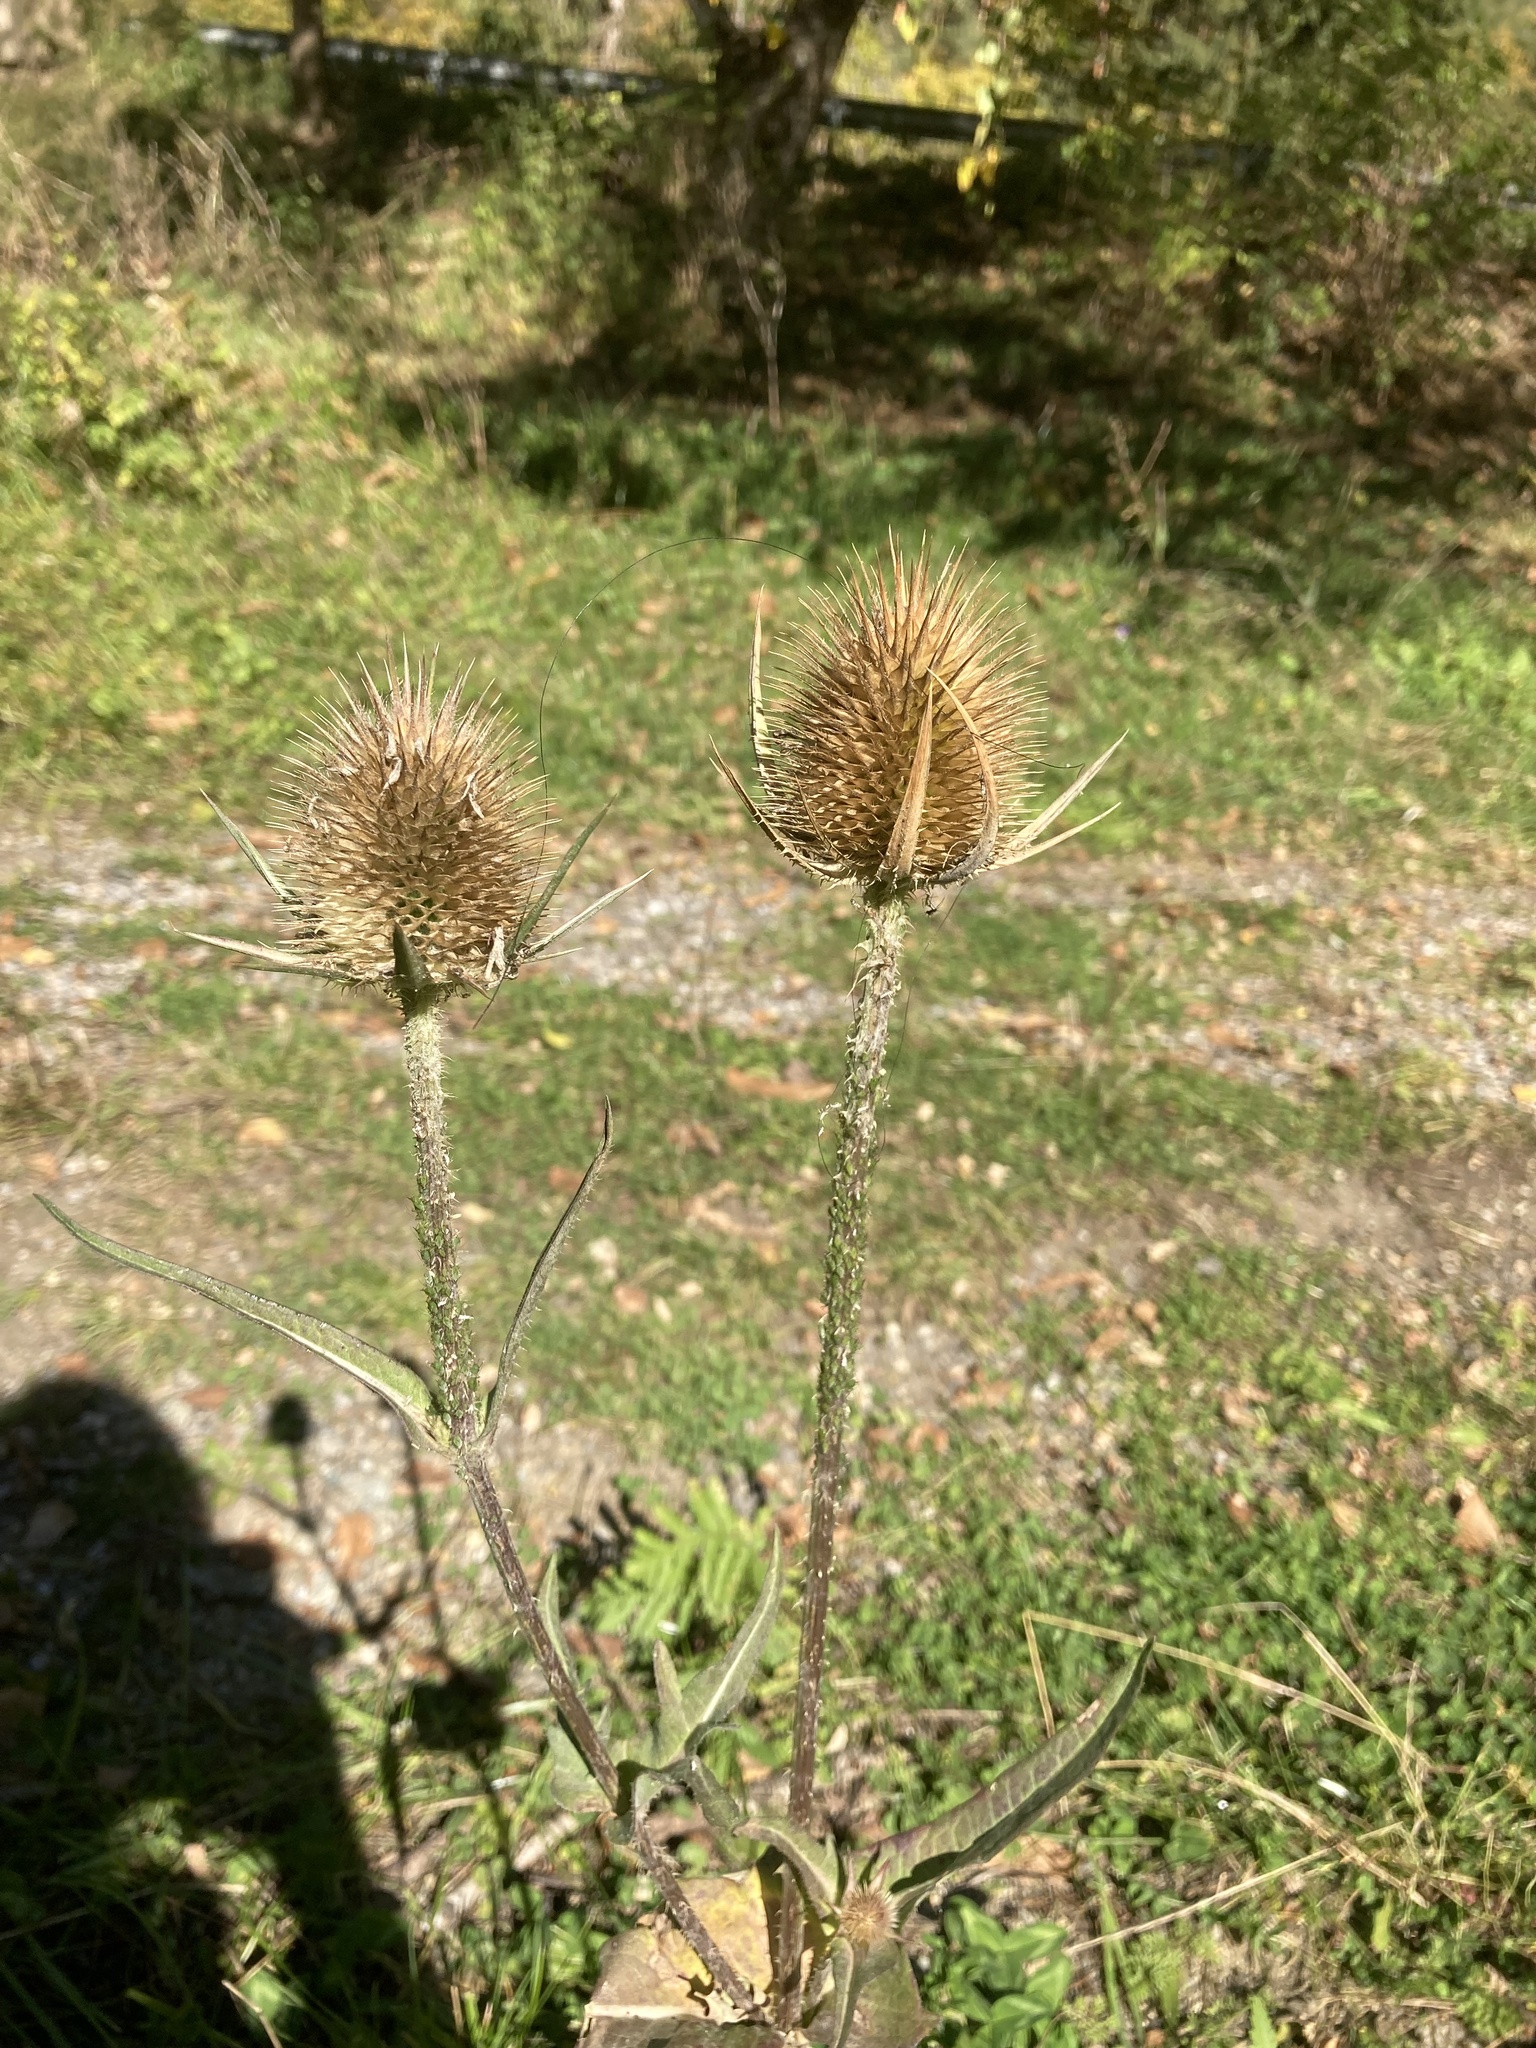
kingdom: Plantae
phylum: Tracheophyta
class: Magnoliopsida
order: Dipsacales
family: Caprifoliaceae
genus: Dipsacus
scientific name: Dipsacus laciniatus
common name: Cut-leaved teasel
